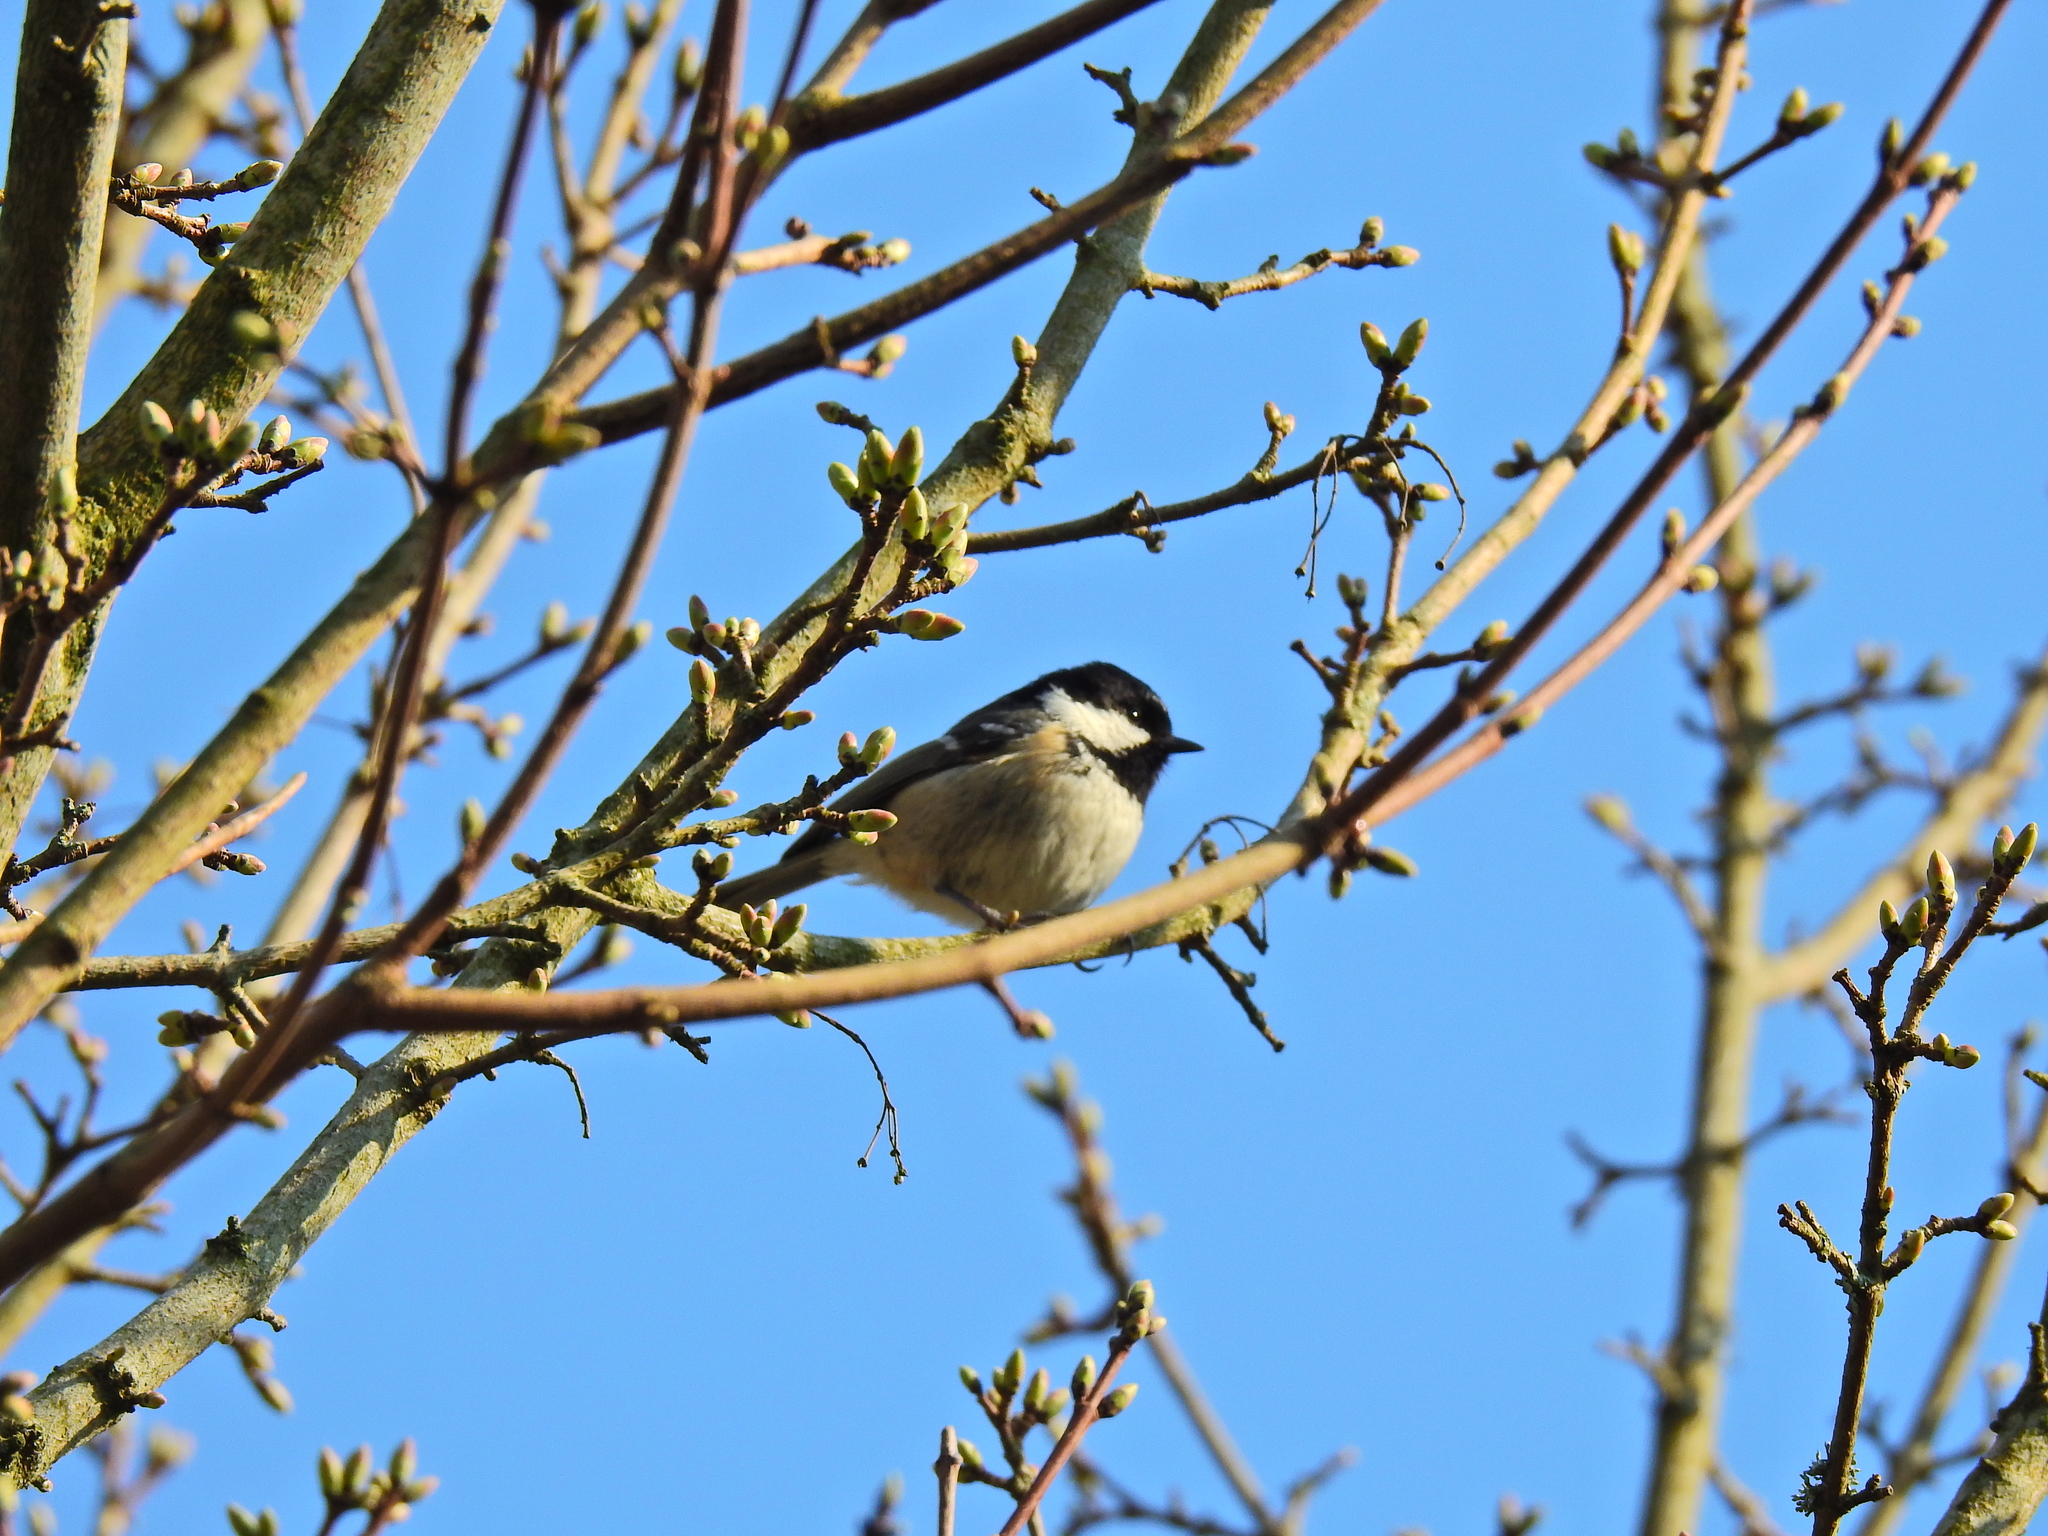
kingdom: Animalia
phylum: Chordata
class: Aves
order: Passeriformes
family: Paridae
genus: Periparus
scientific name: Periparus ater
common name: Coal tit
